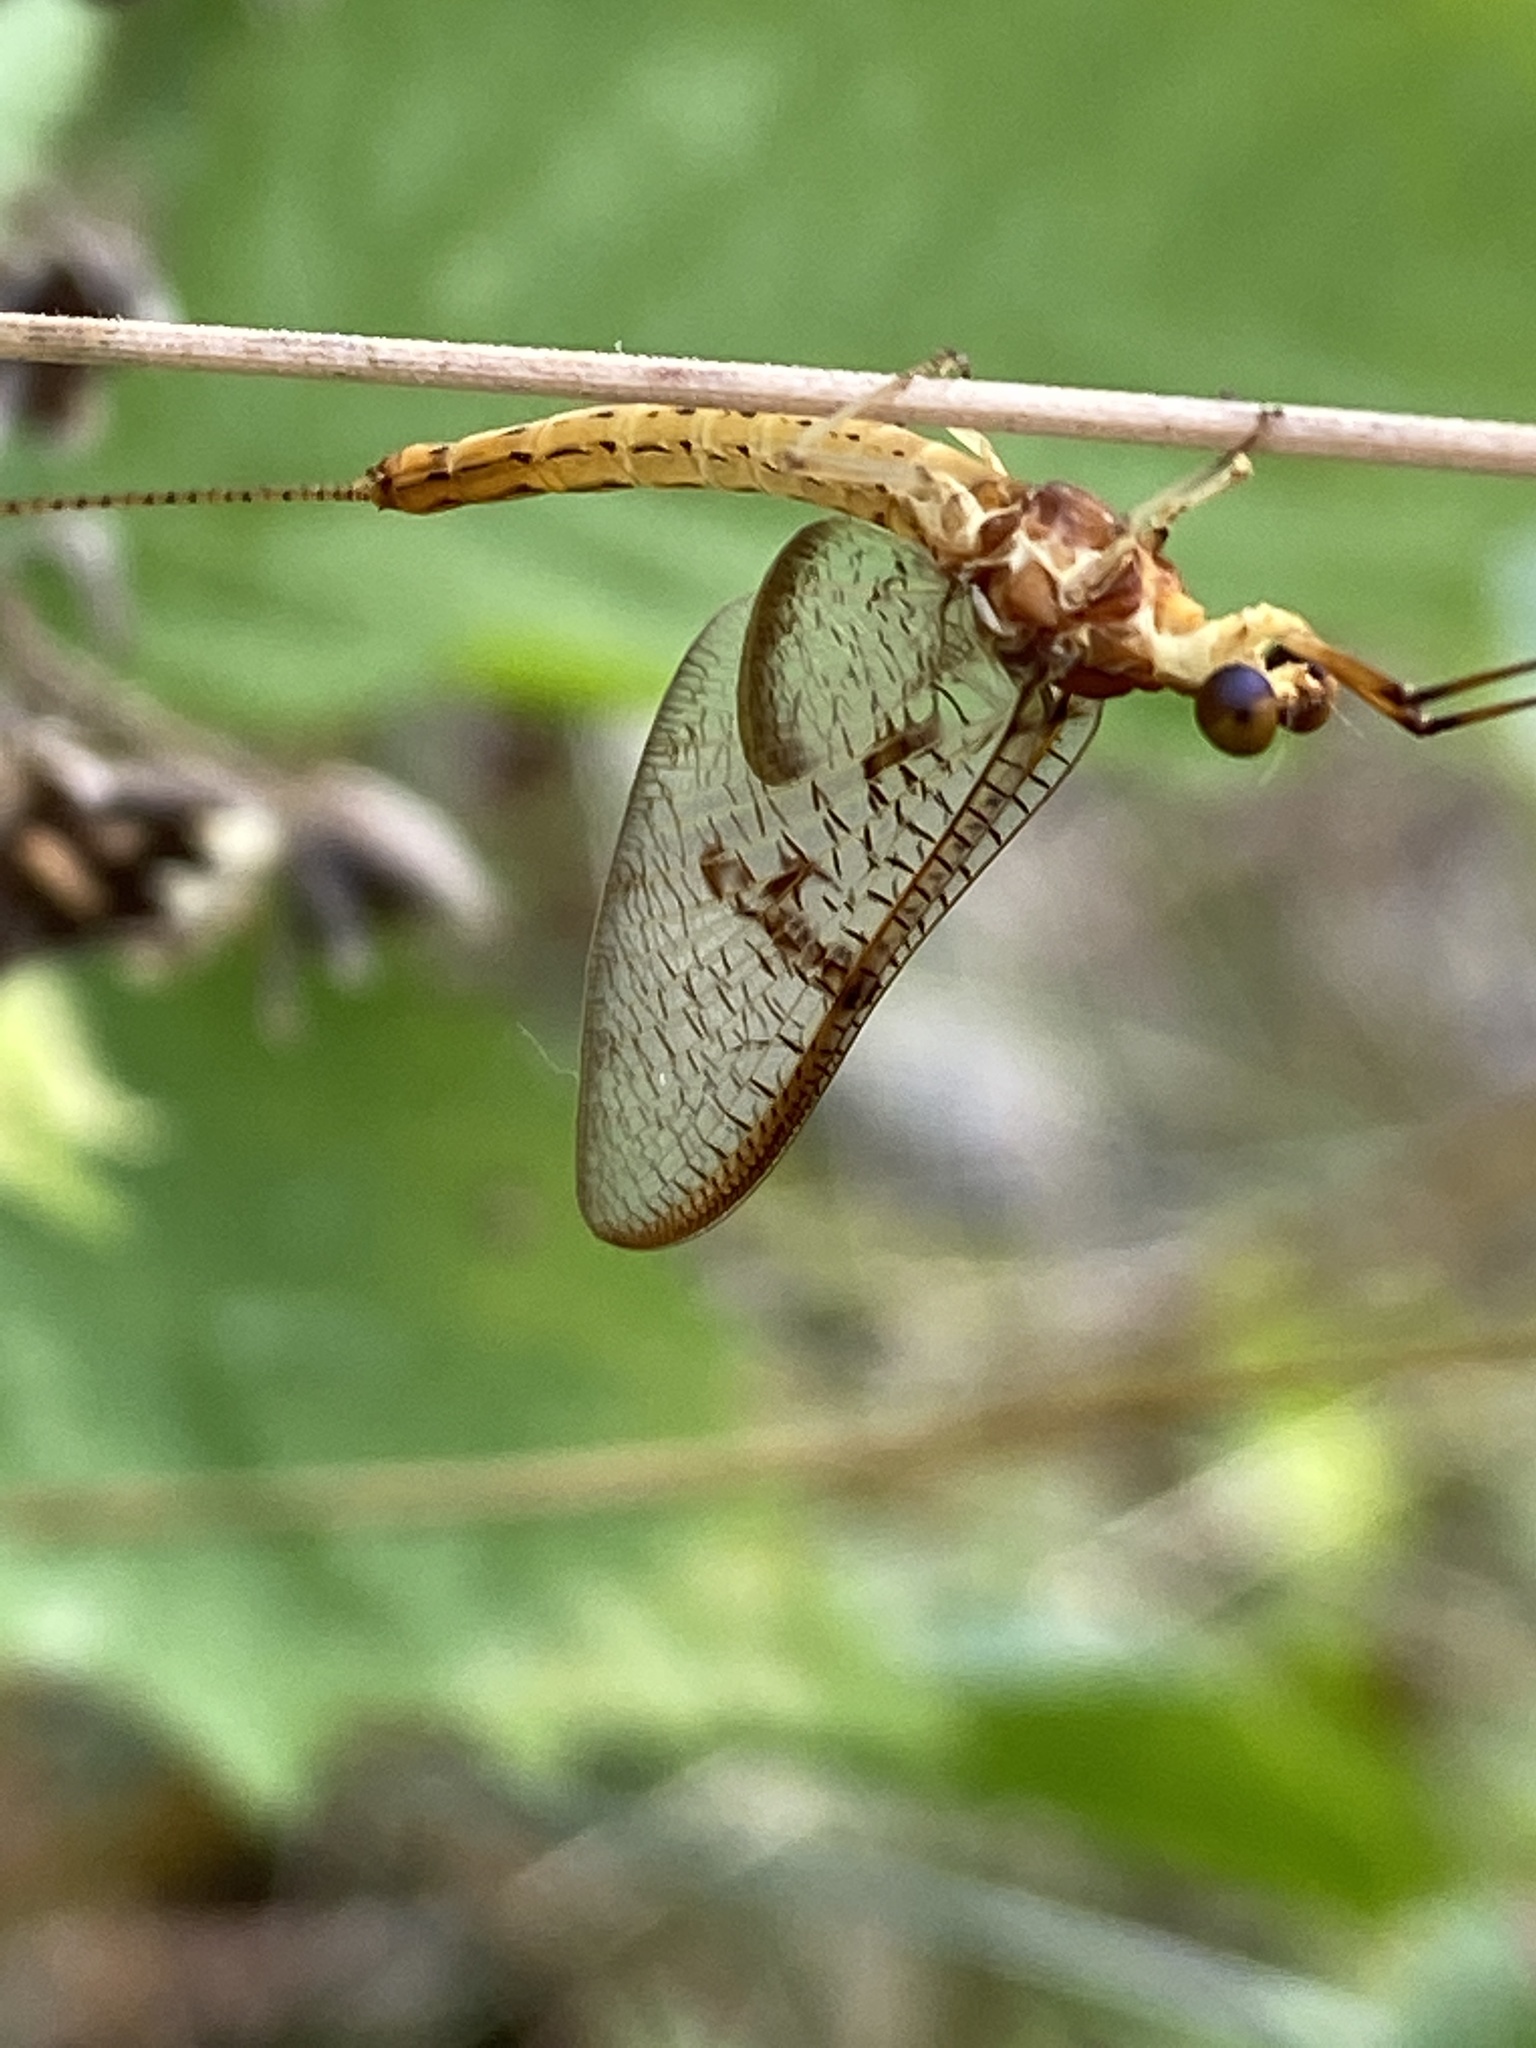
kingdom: Animalia
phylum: Arthropoda
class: Insecta
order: Ephemeroptera
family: Ephemeridae
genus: Ephemera
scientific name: Ephemera glaucops
